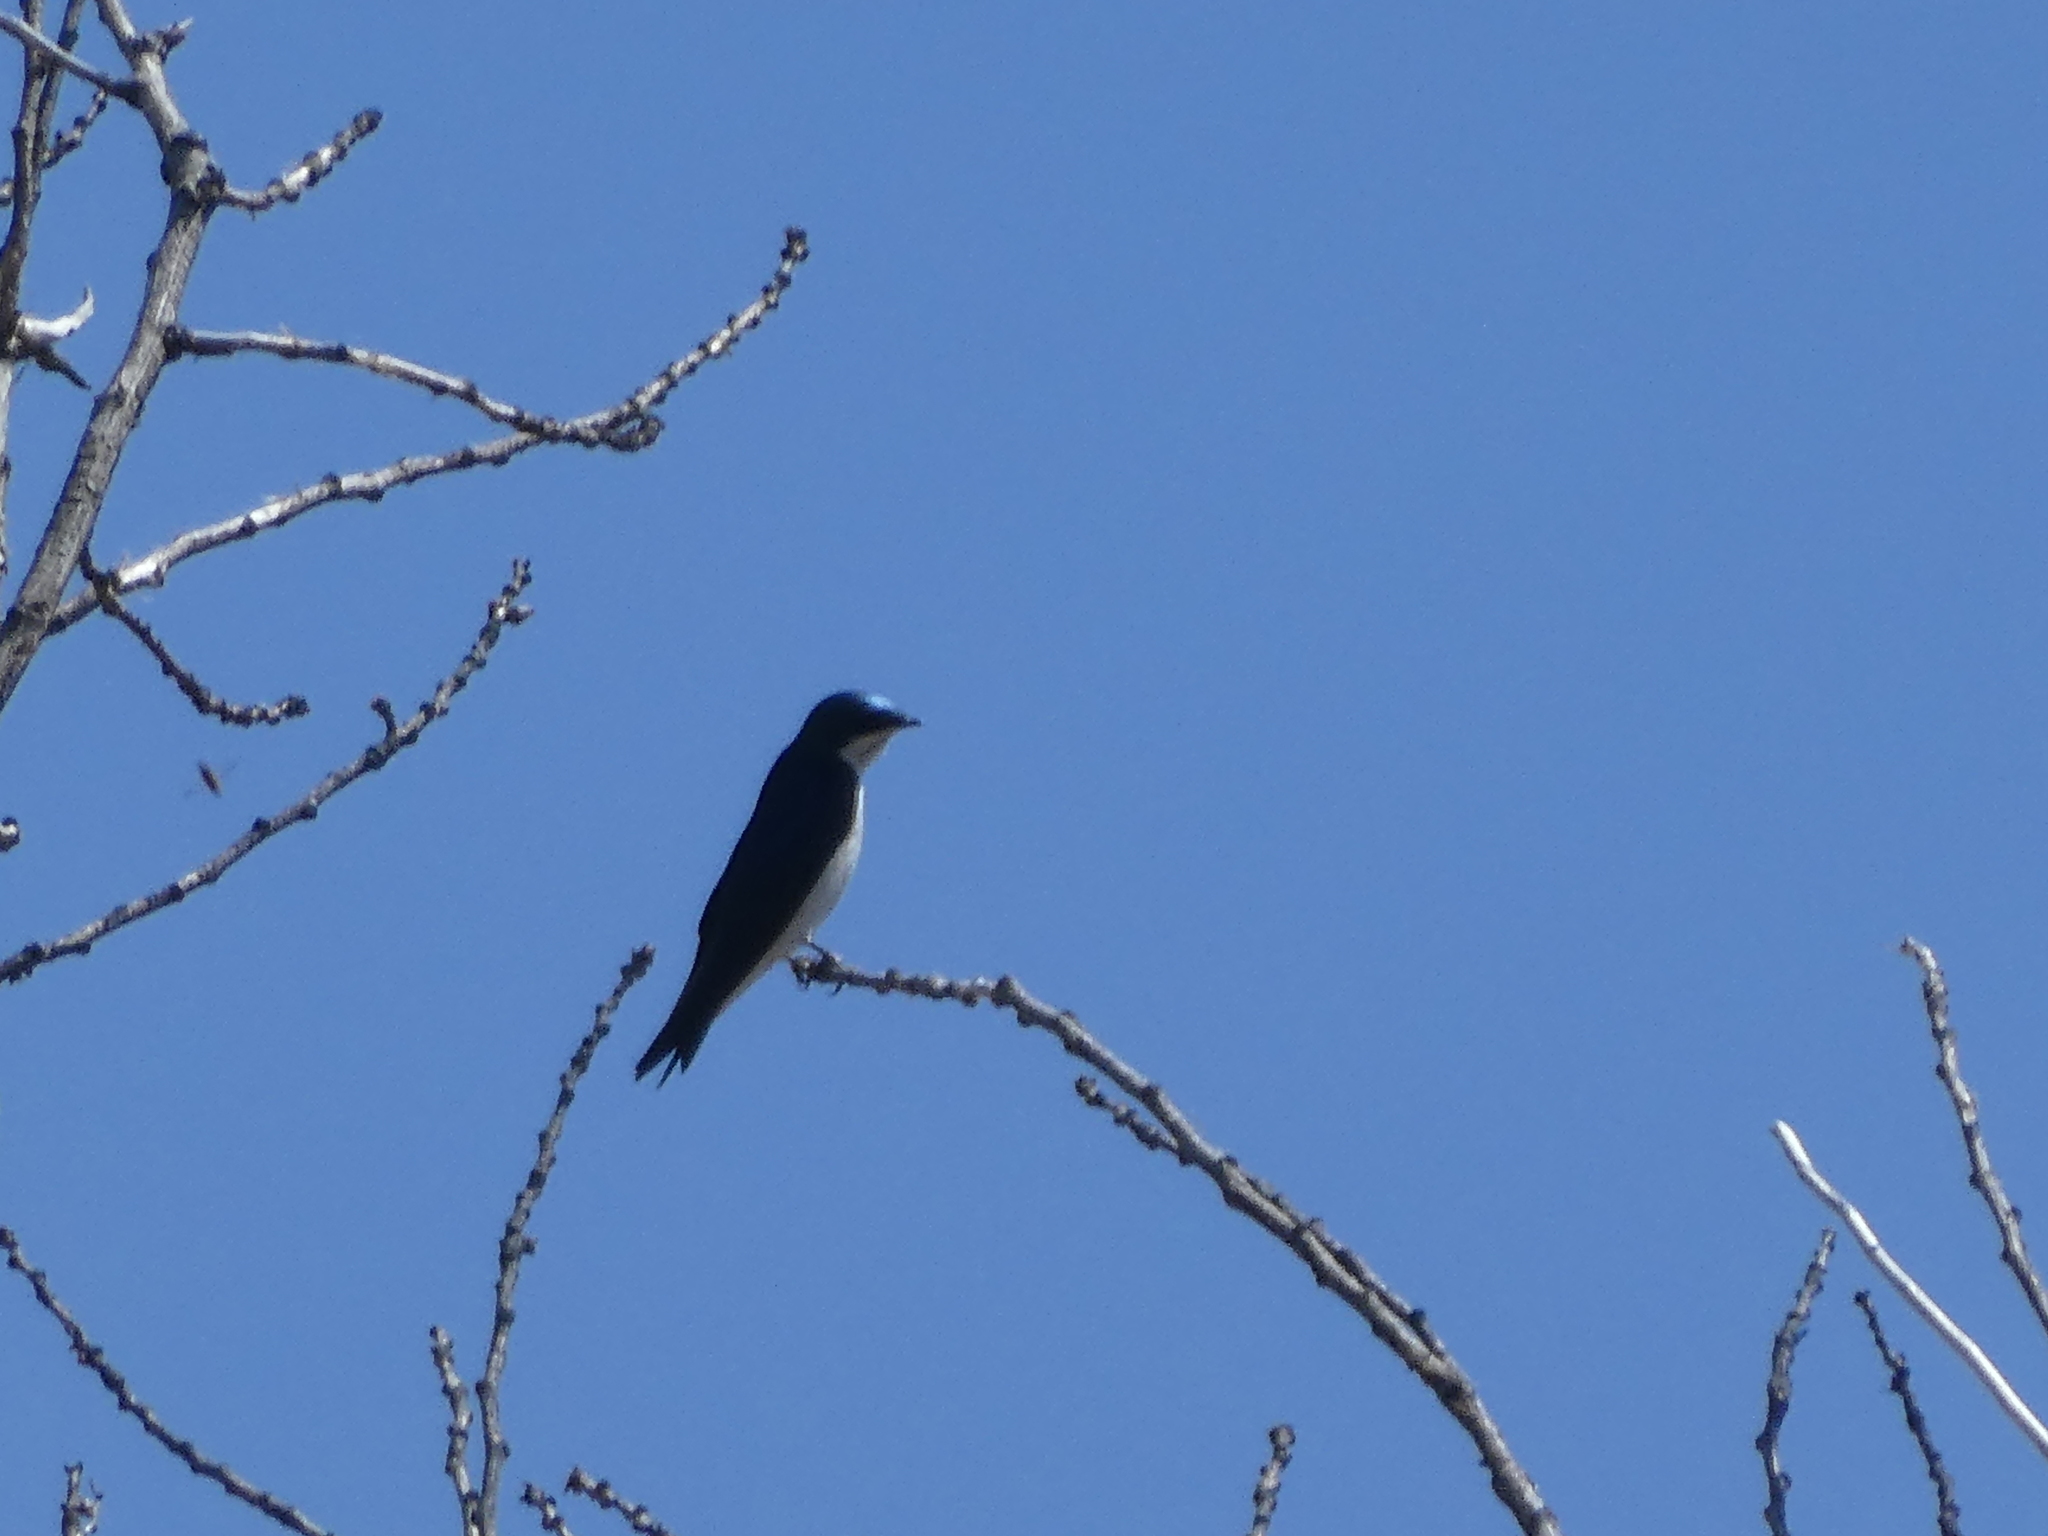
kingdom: Animalia
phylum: Chordata
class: Aves
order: Passeriformes
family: Hirundinidae
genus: Tachycineta
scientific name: Tachycineta bicolor
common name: Tree swallow
